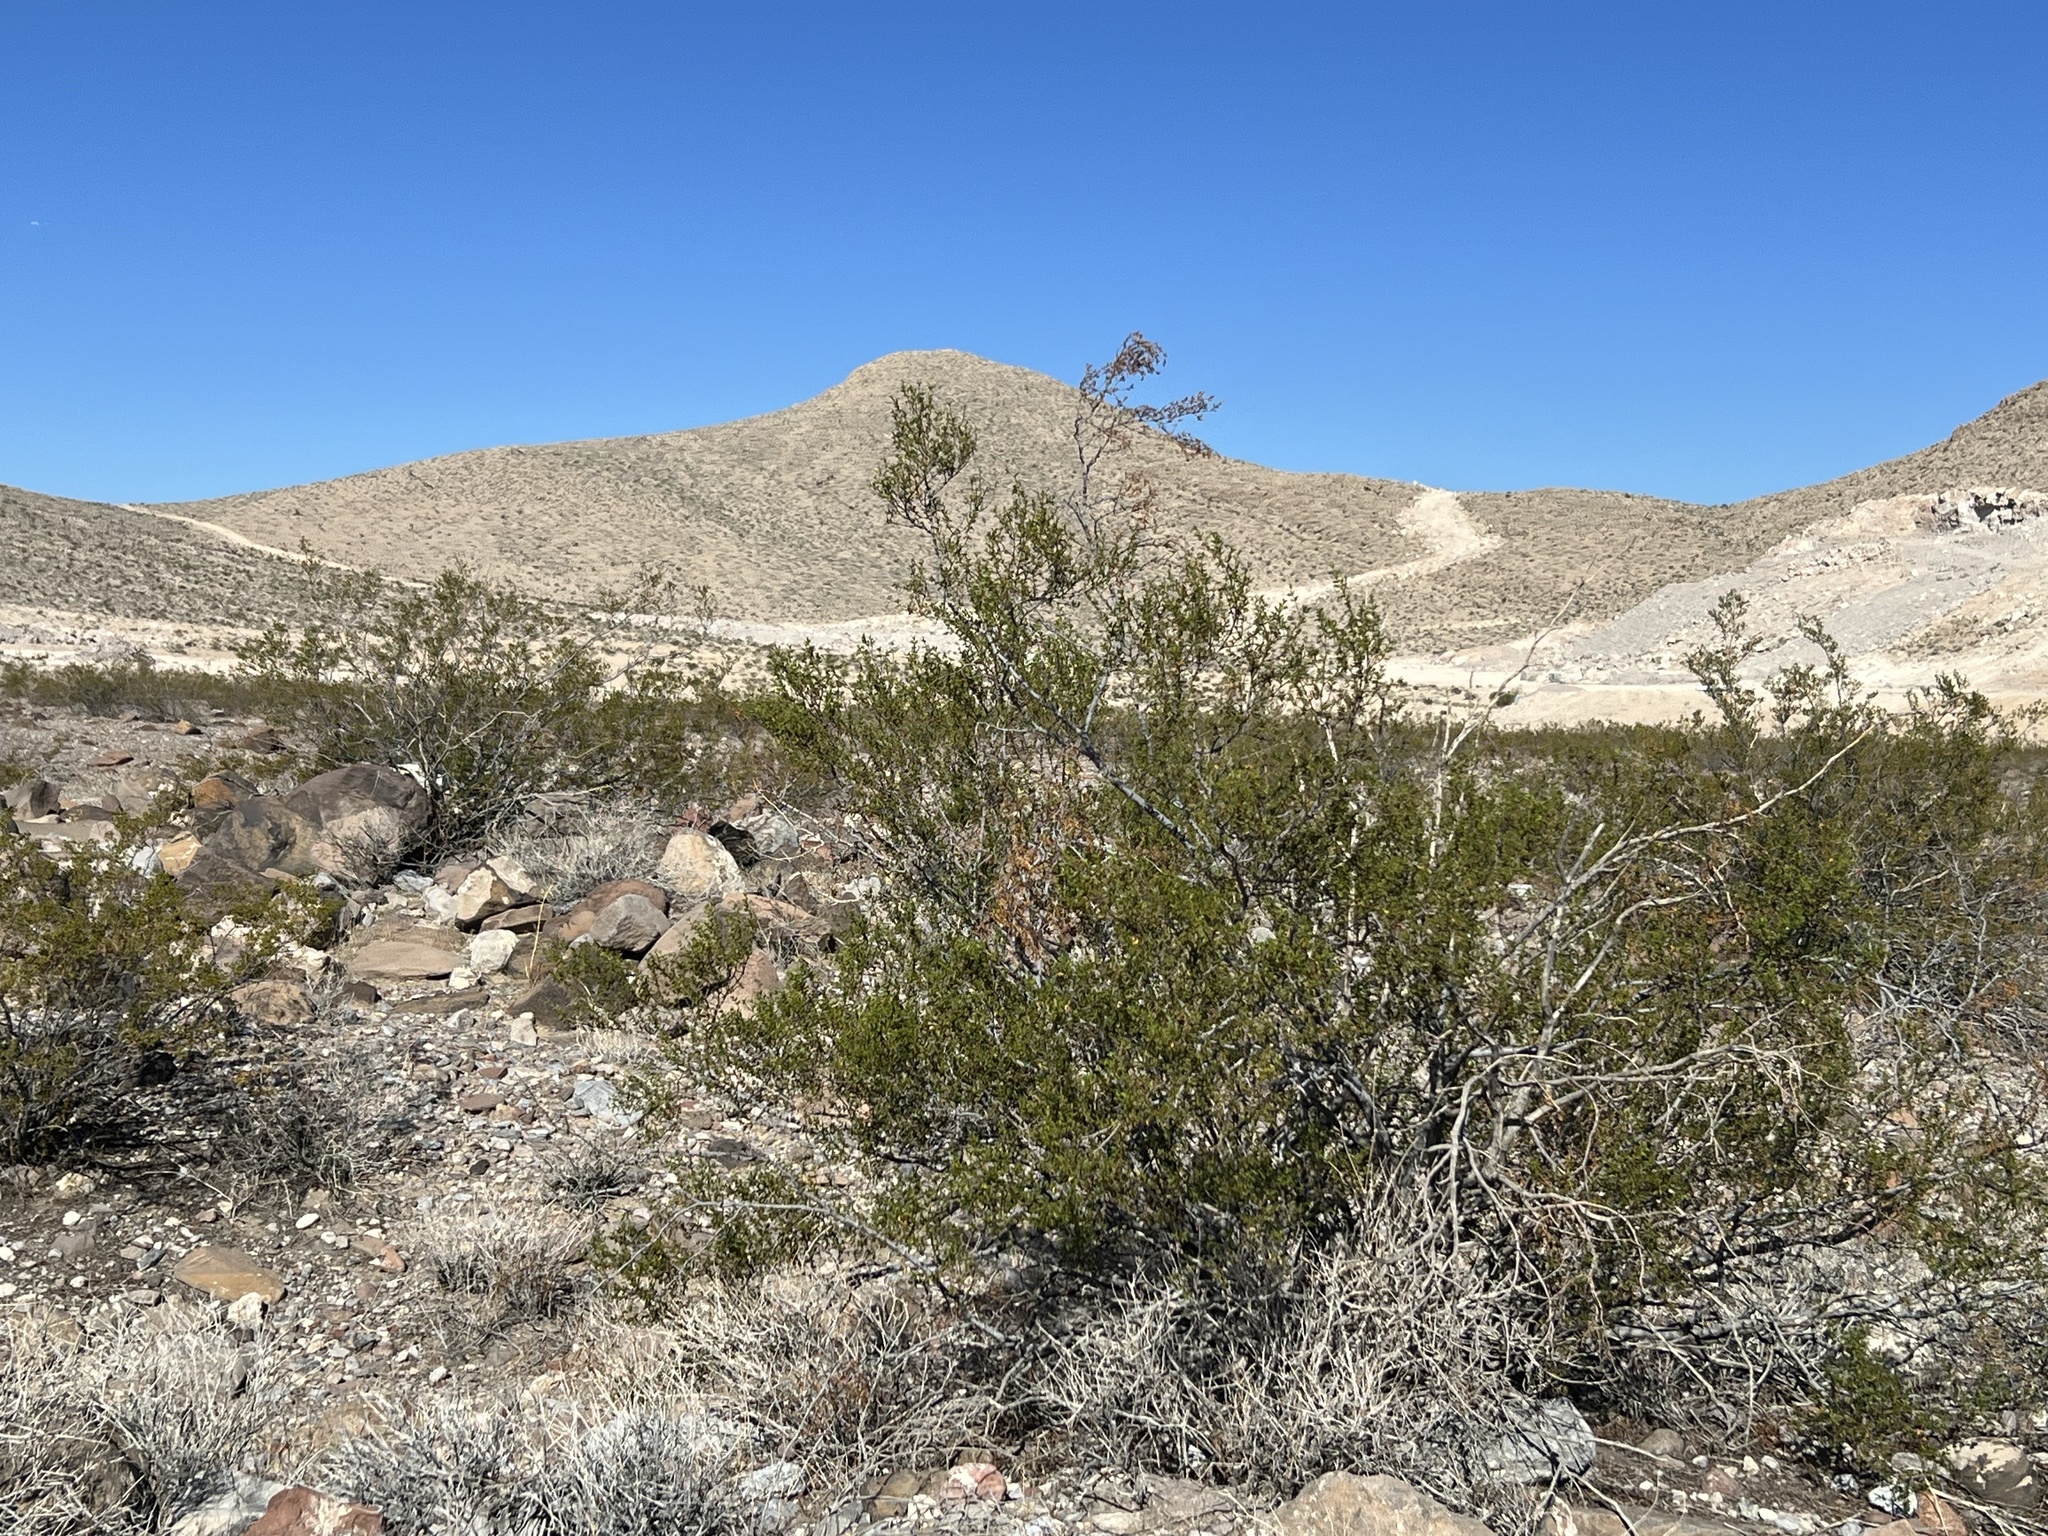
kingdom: Plantae
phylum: Tracheophyta
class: Magnoliopsida
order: Zygophyllales
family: Zygophyllaceae
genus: Larrea
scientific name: Larrea tridentata
